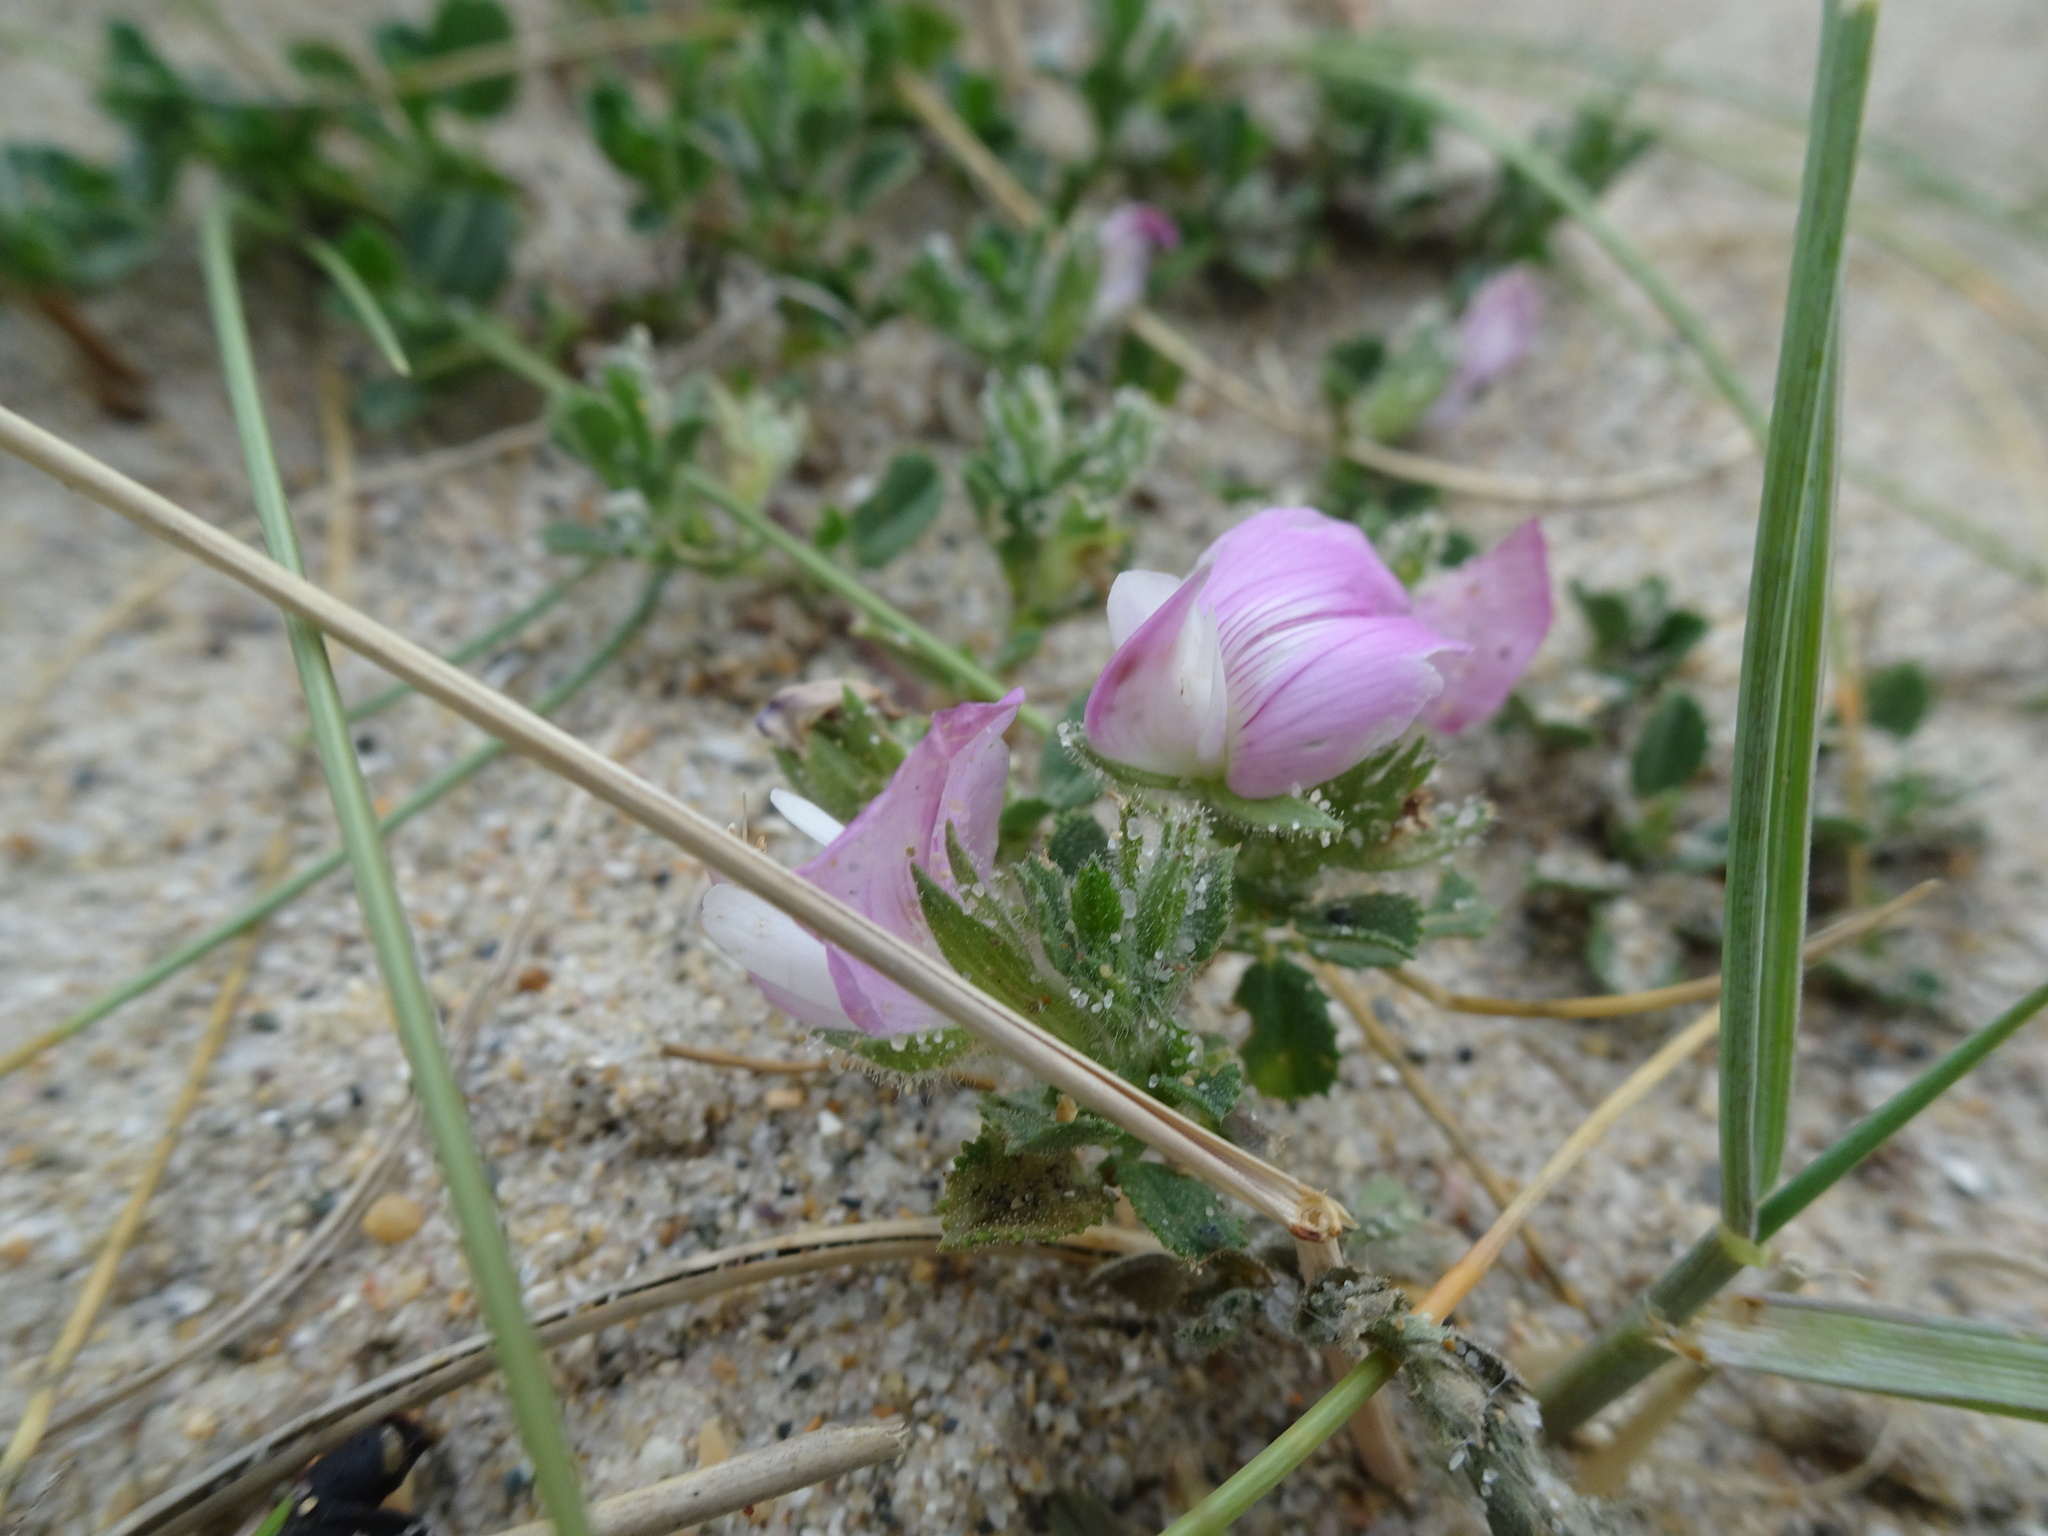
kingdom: Plantae
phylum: Tracheophyta
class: Magnoliopsida
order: Fabales
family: Fabaceae
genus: Ononis
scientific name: Ononis spinosa
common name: Spiny restharrow
